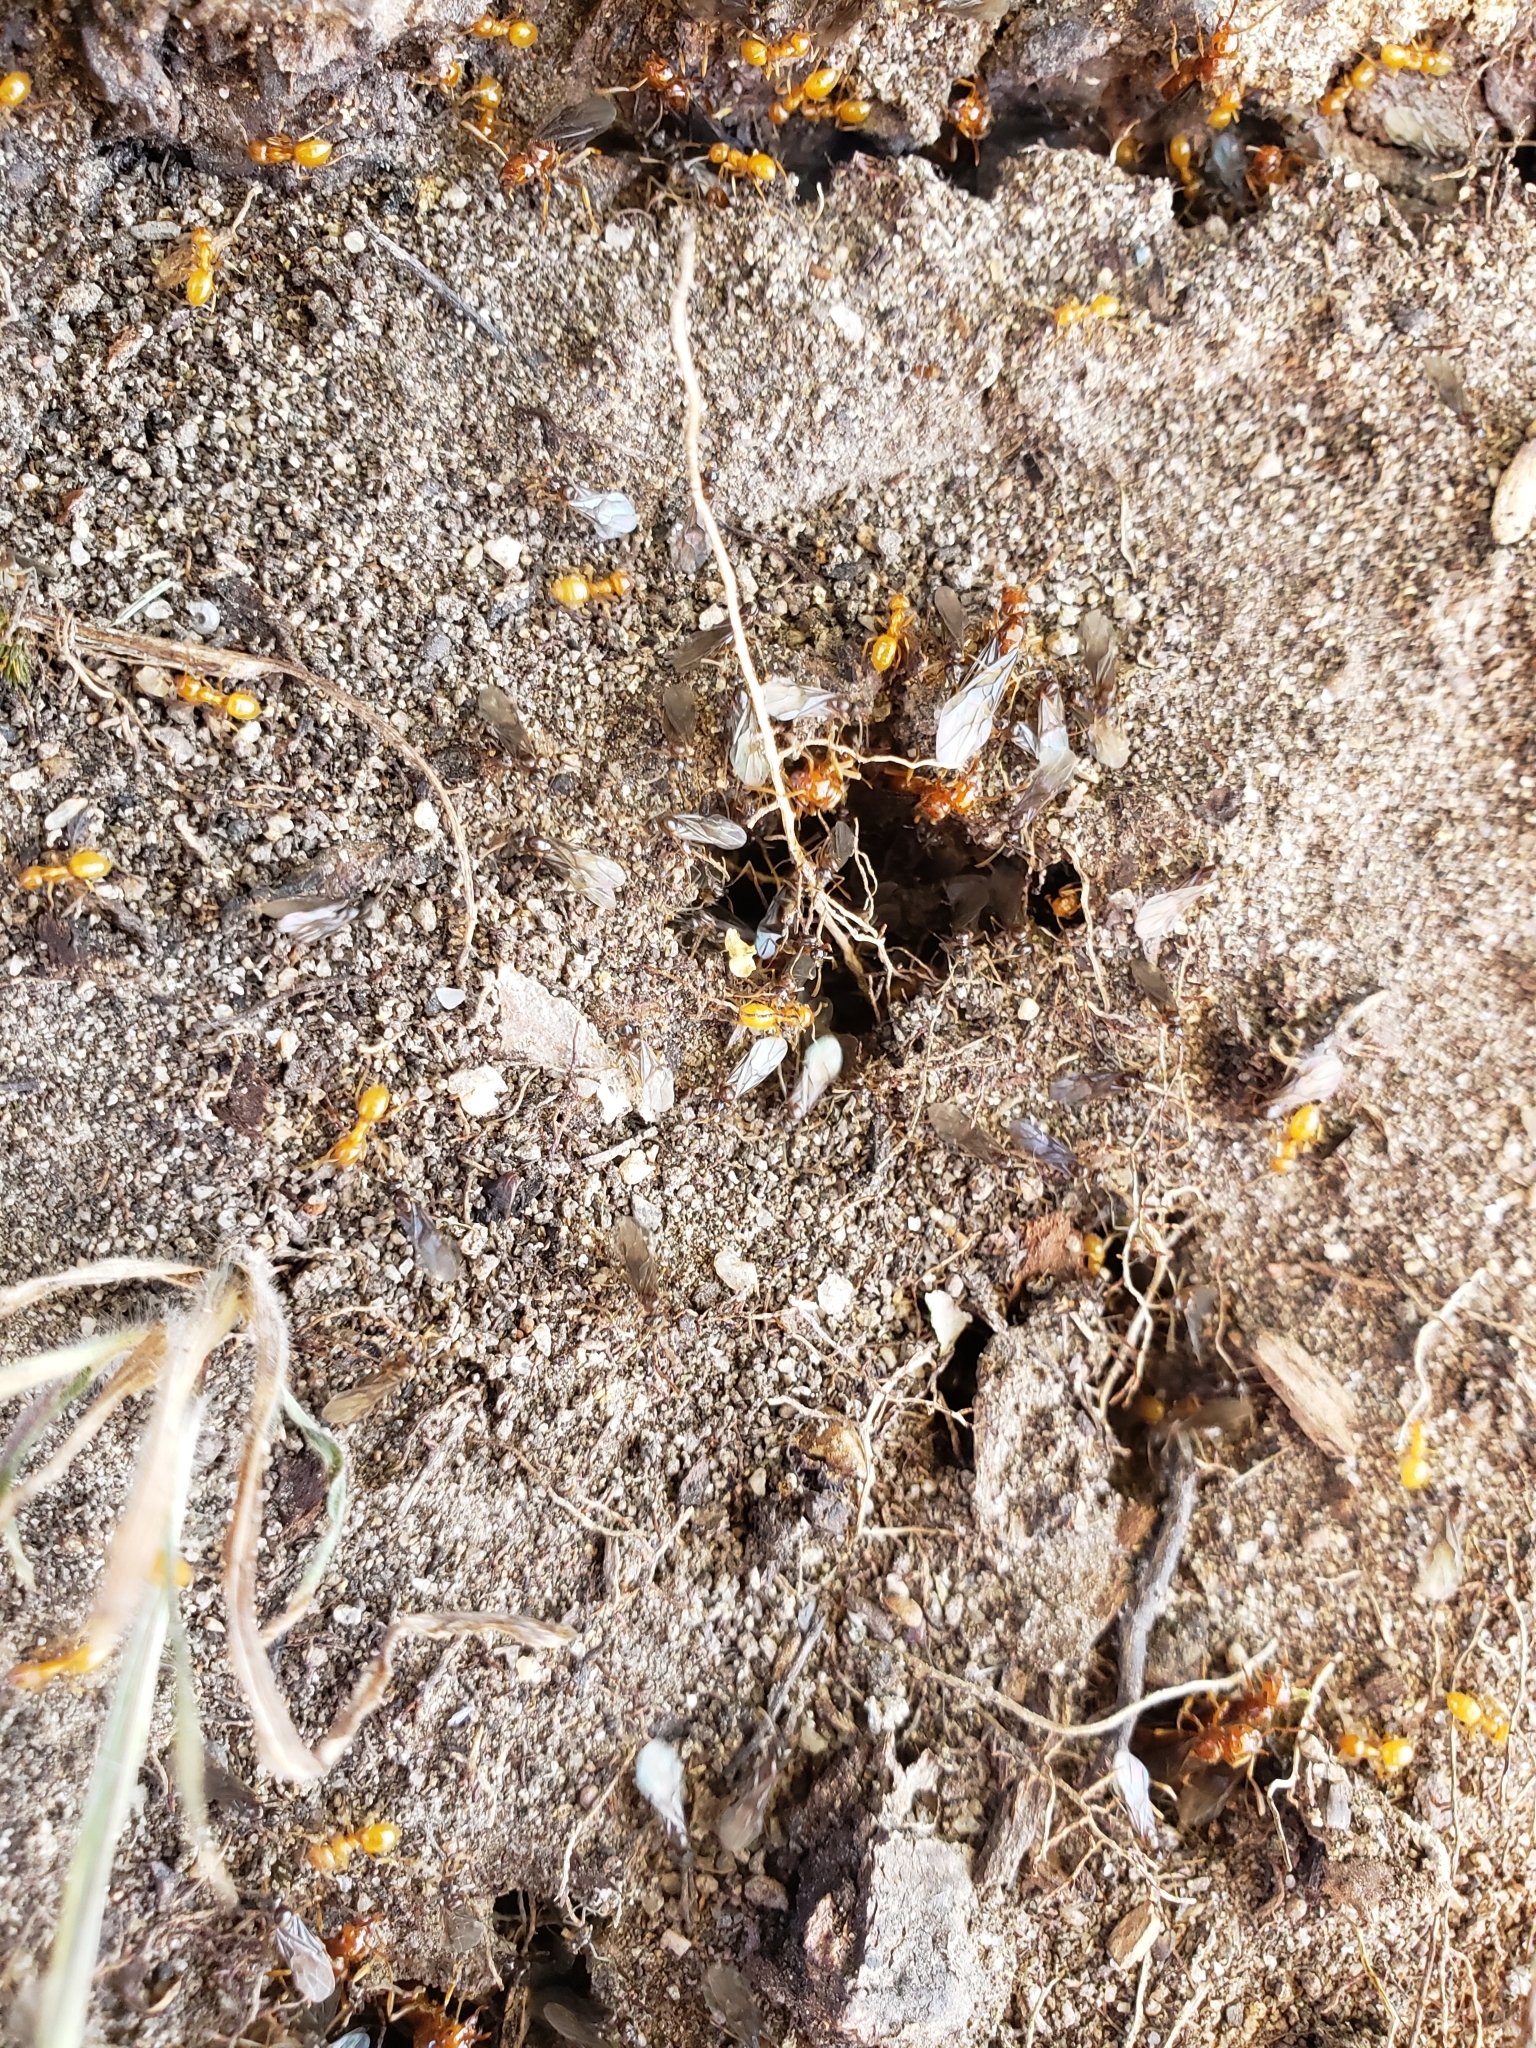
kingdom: Animalia
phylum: Arthropoda
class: Insecta
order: Hymenoptera
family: Formicidae
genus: Acanthomyops
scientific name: Acanthomyops interjectus
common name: Larger yellow ant
